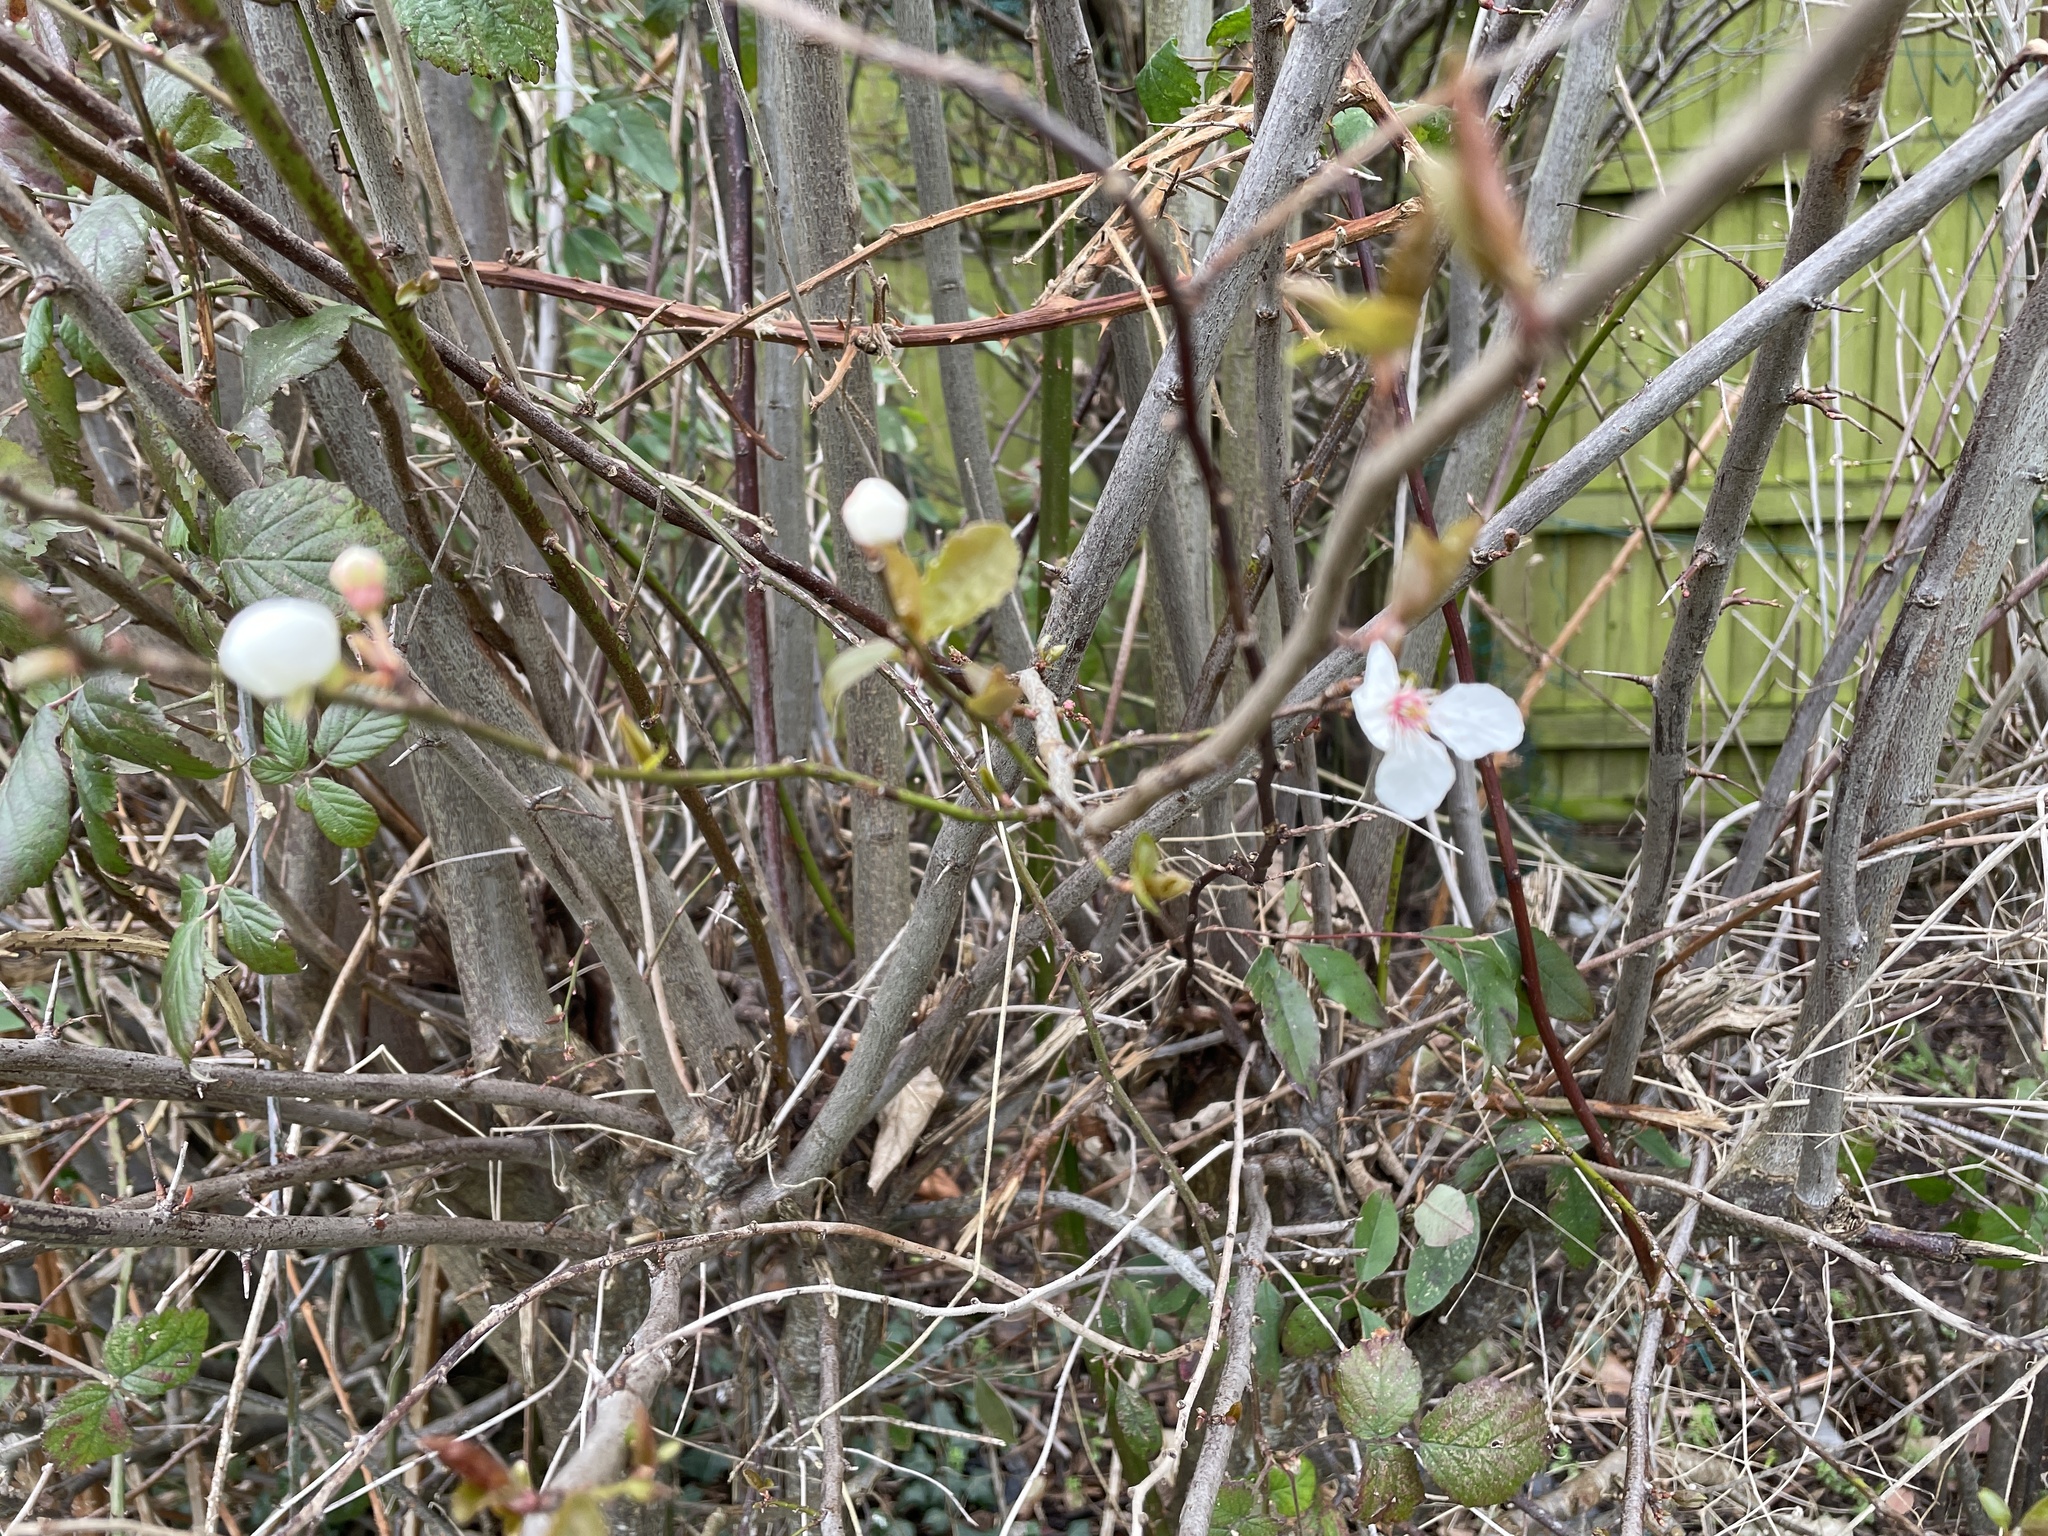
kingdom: Plantae
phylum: Tracheophyta
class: Magnoliopsida
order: Rosales
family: Rosaceae
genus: Prunus
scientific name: Prunus cerasifera
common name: Cherry plum
